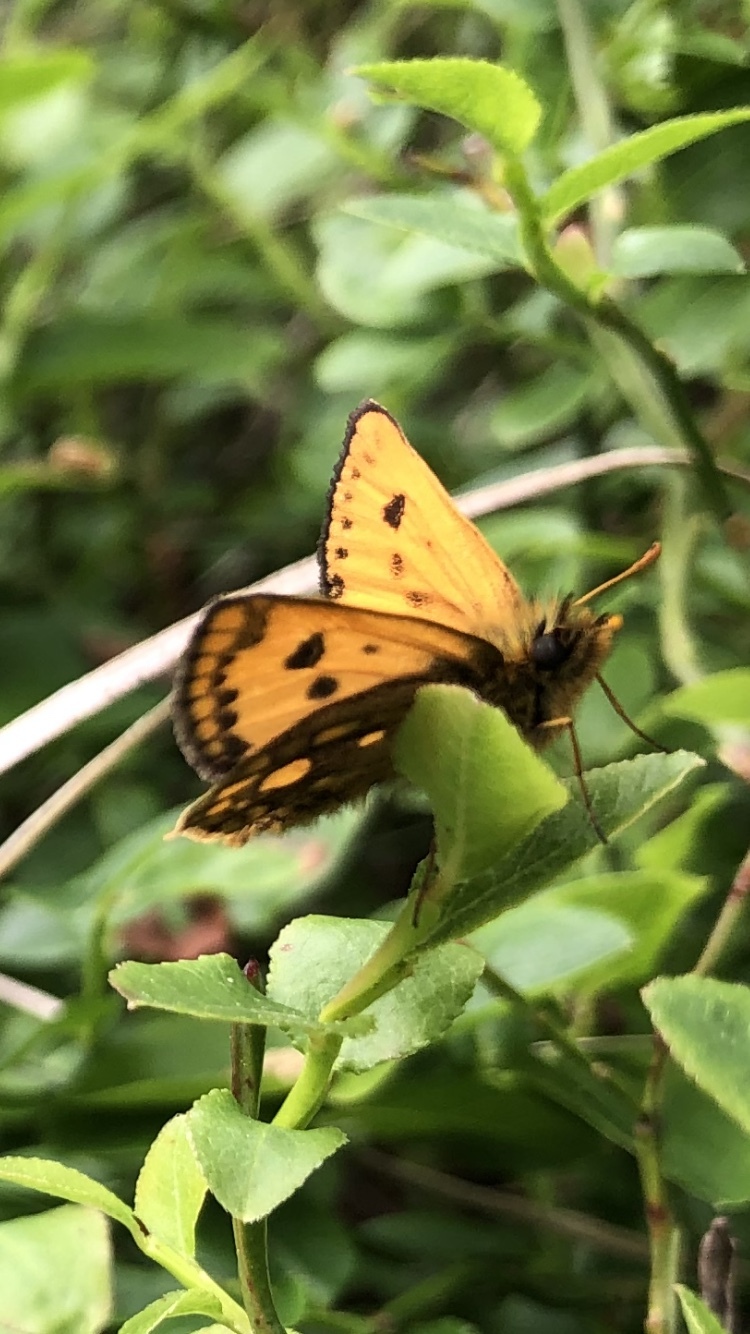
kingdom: Animalia
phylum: Arthropoda
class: Insecta
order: Lepidoptera
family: Hesperiidae
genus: Carterocephalus
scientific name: Carterocephalus silvicola
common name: Northern chequered skipper
